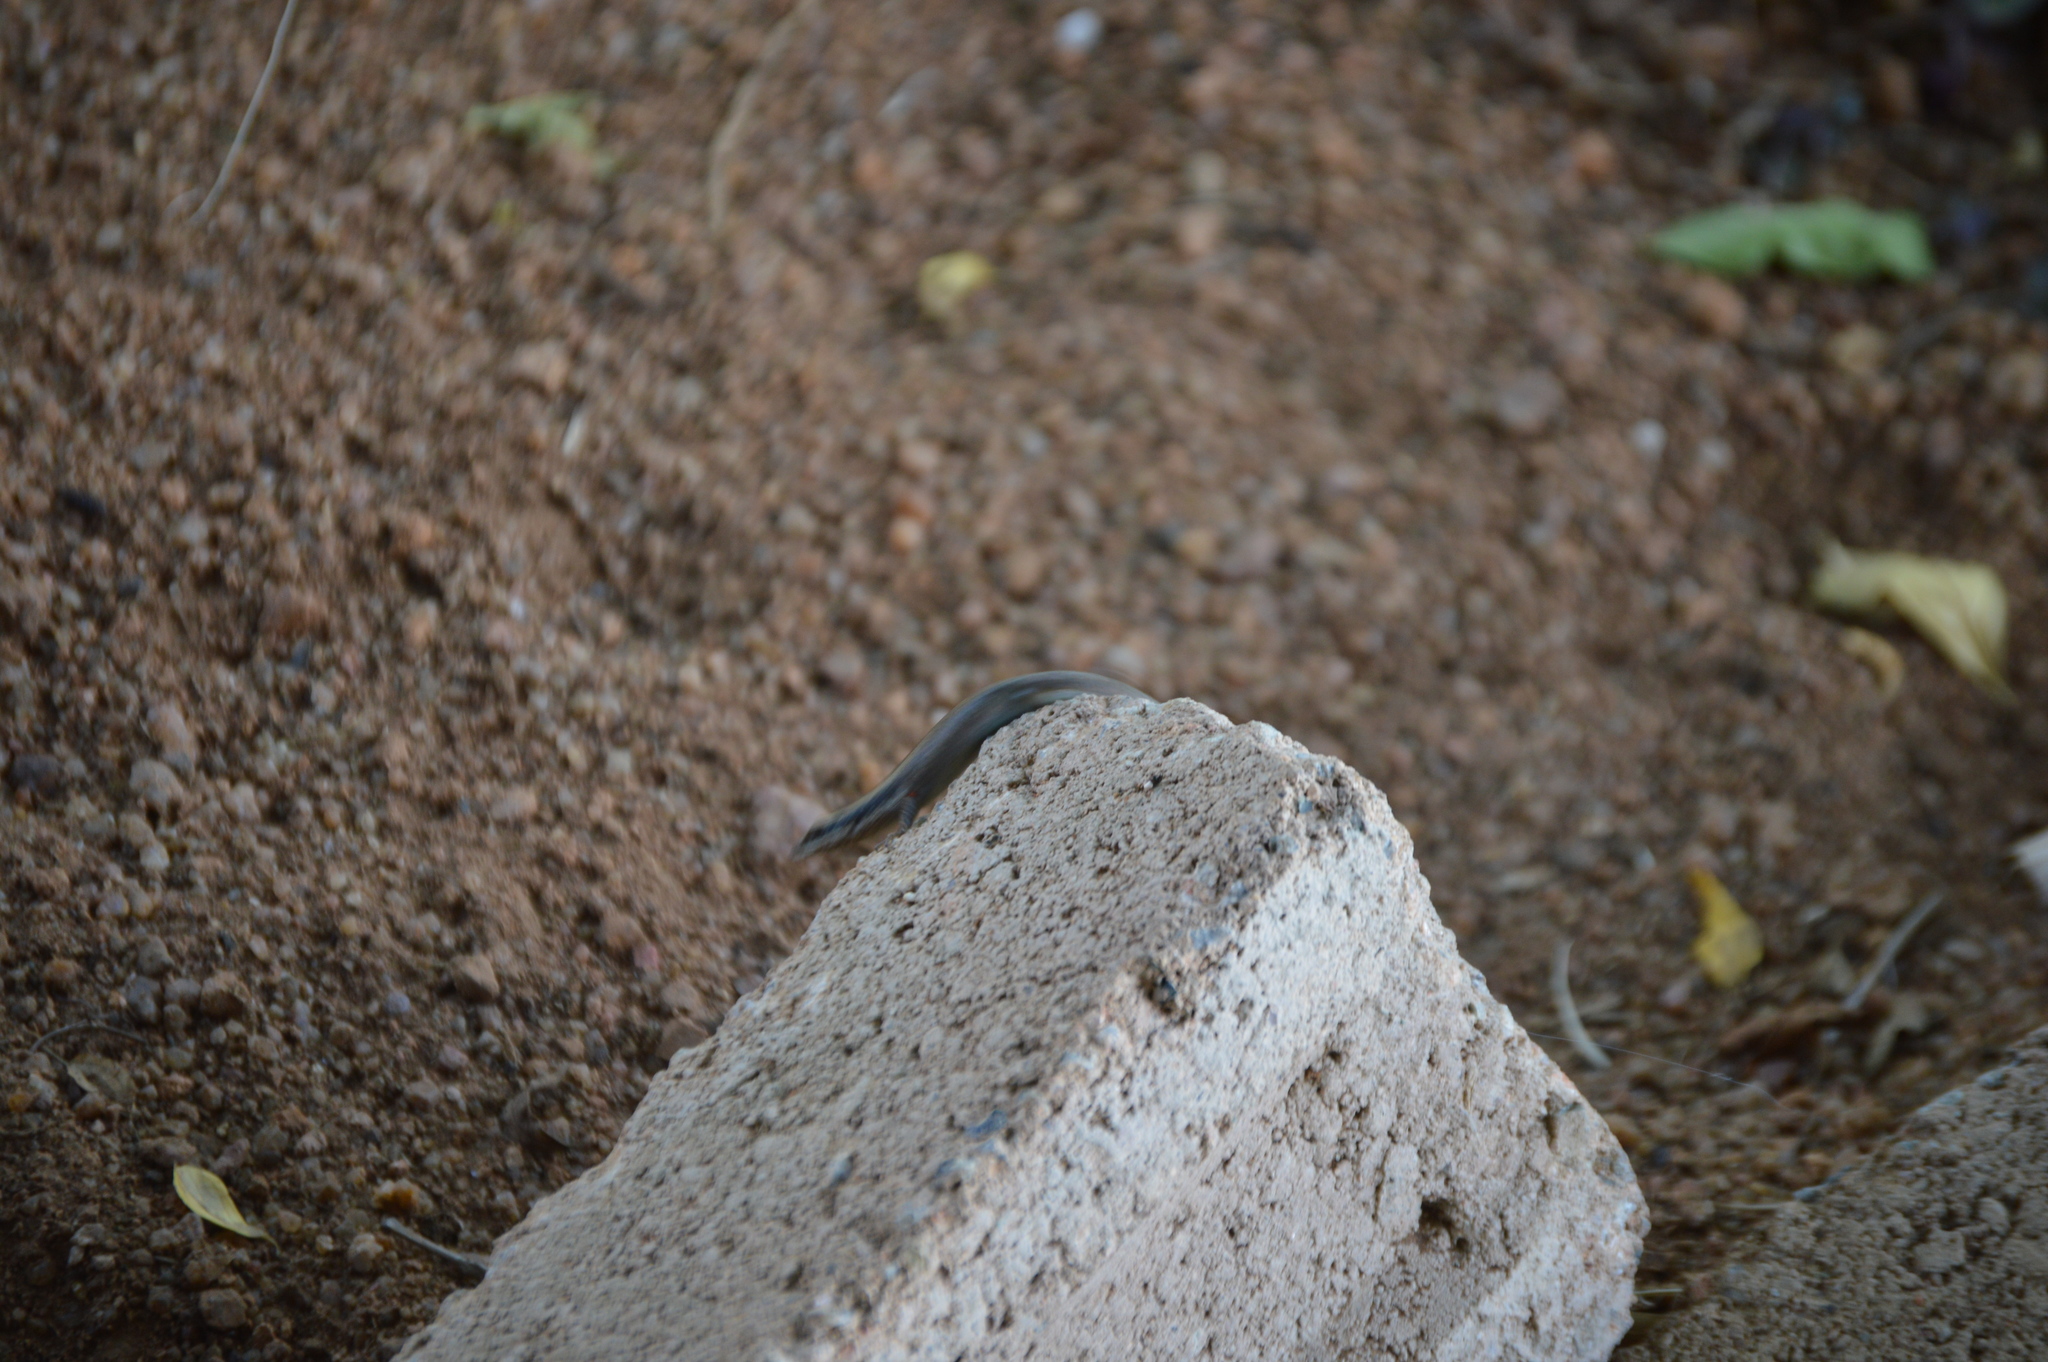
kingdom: Animalia
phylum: Chordata
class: Squamata
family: Scincidae
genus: Trachylepis
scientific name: Trachylepis punctatissima
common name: Montane speckled skink
